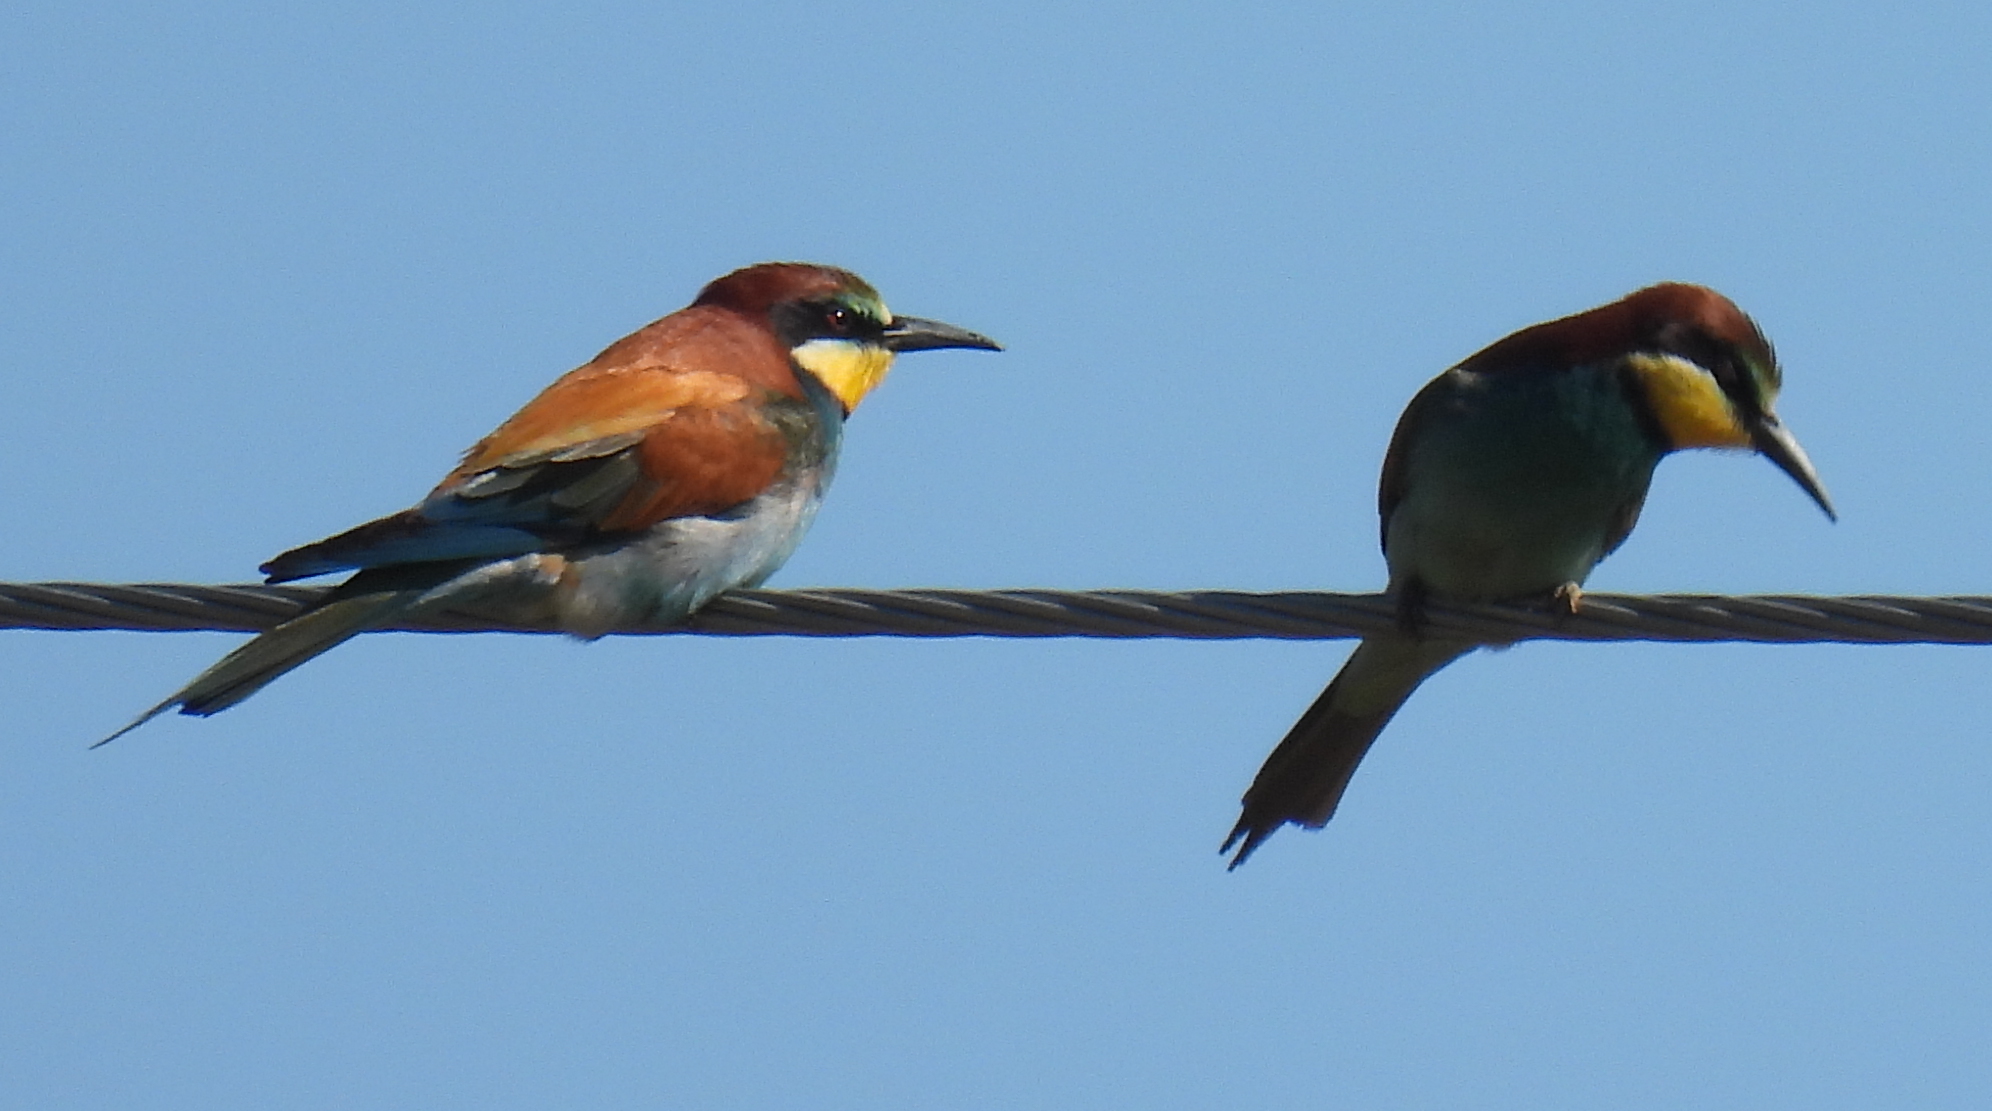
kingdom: Animalia
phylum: Chordata
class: Aves
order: Coraciiformes
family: Meropidae
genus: Merops
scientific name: Merops apiaster
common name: European bee-eater
